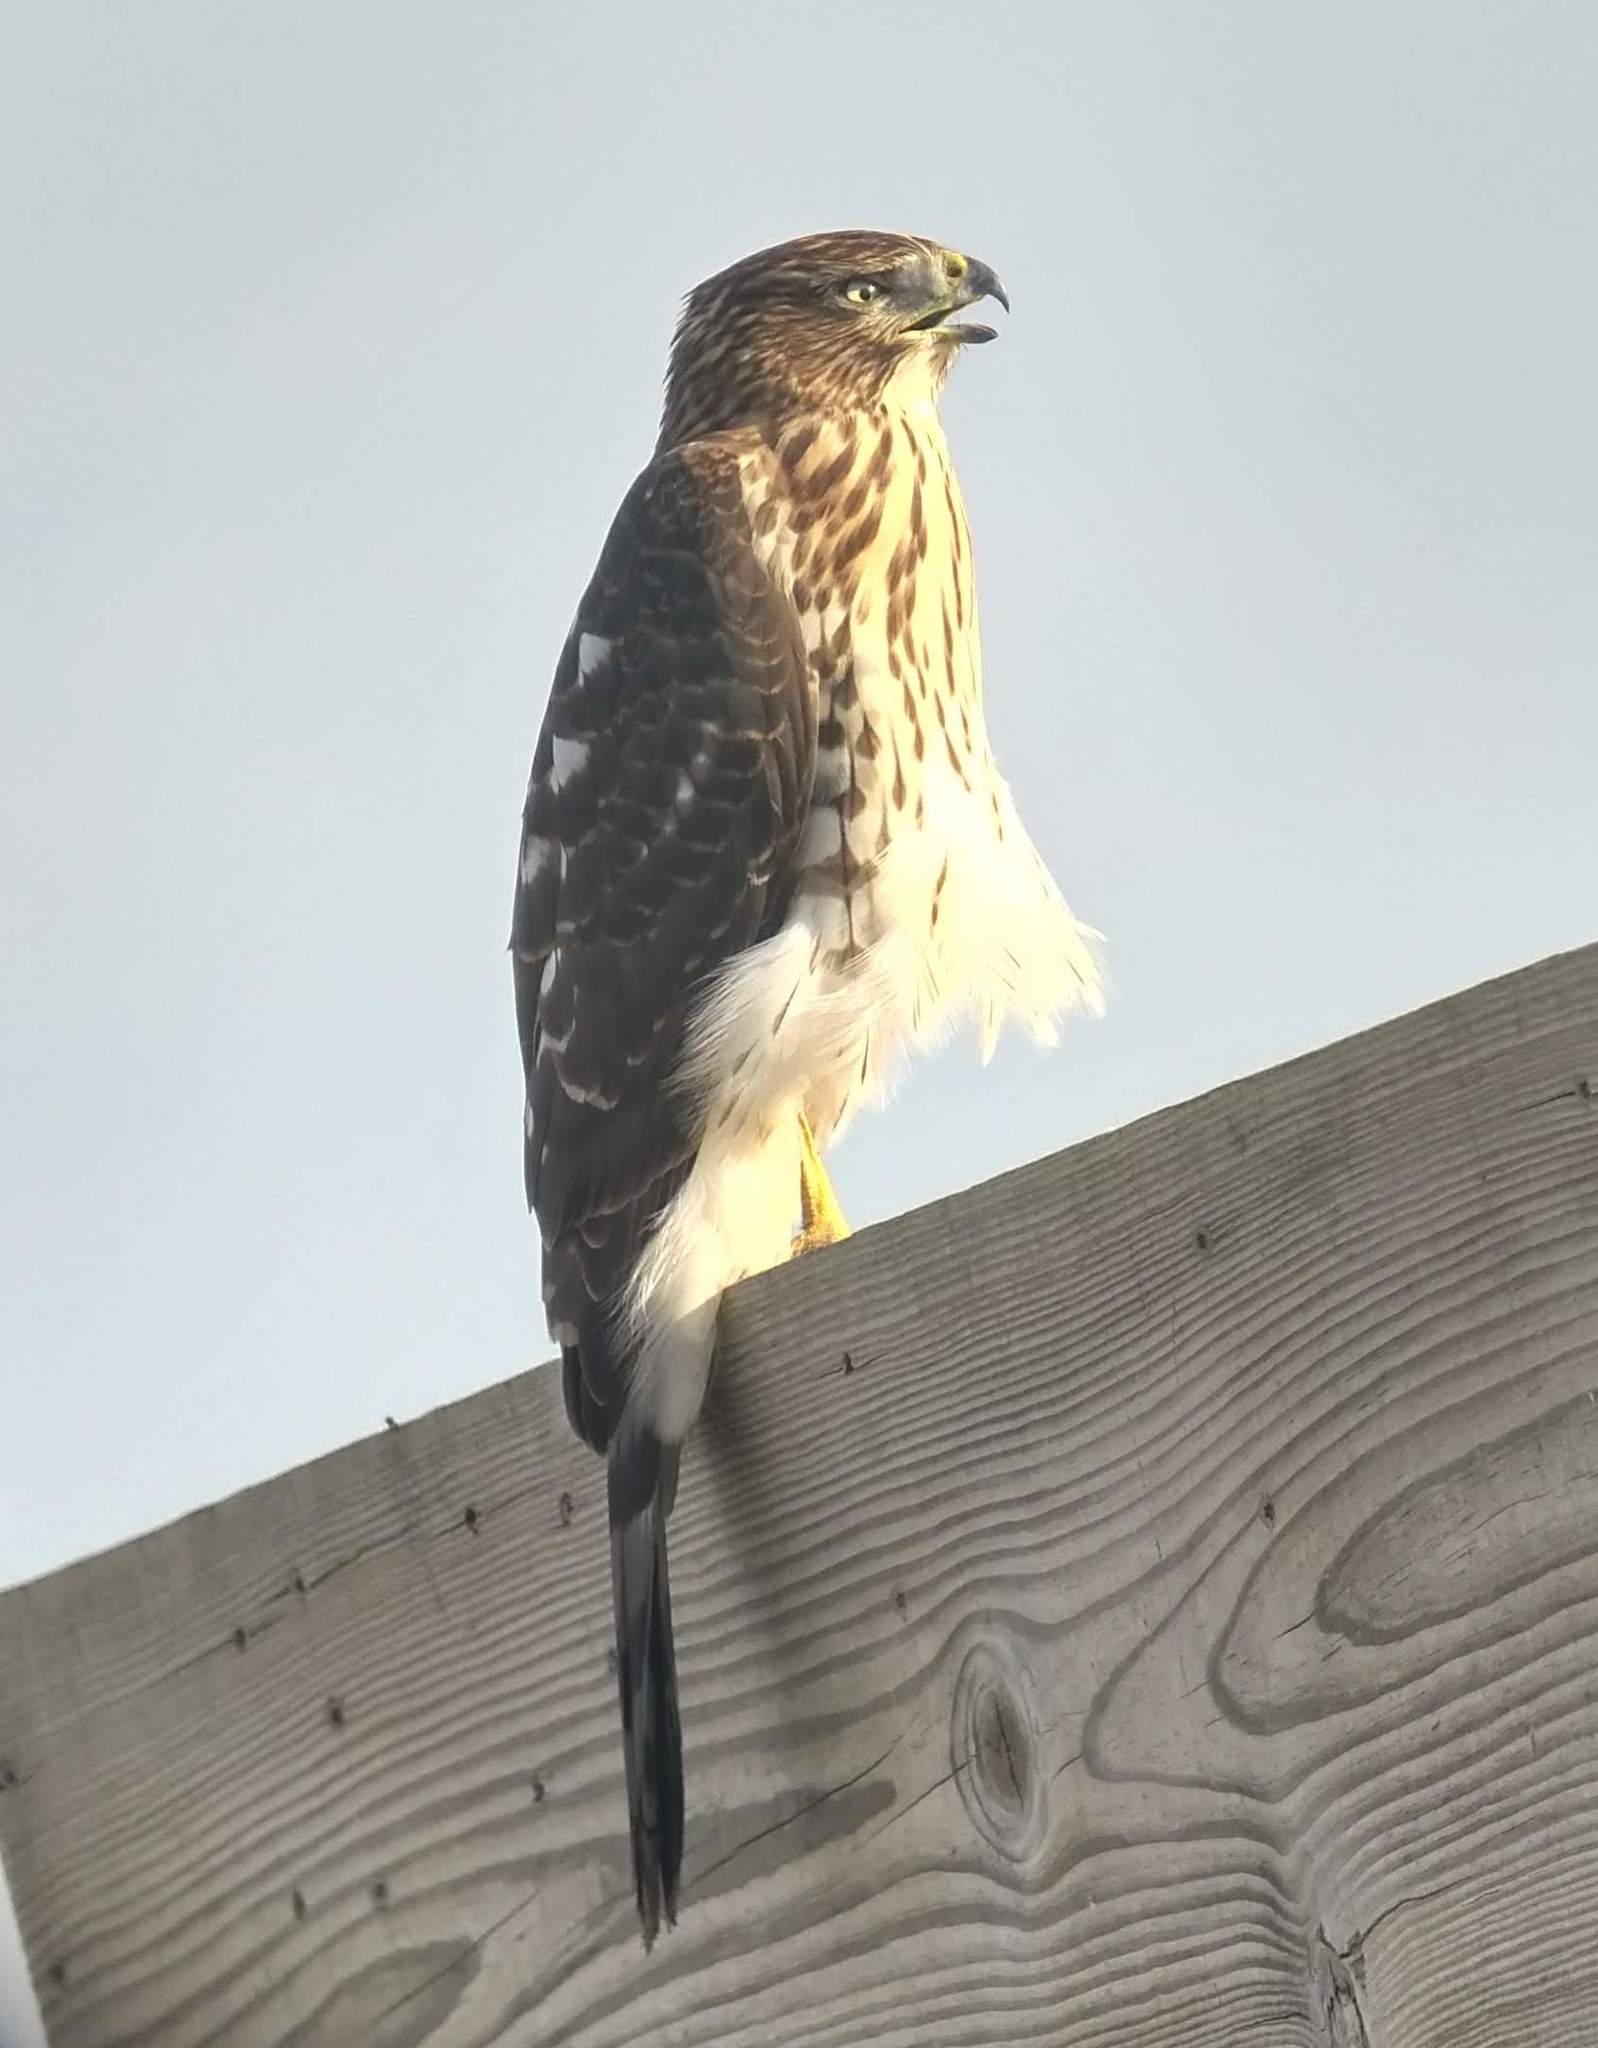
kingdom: Animalia
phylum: Chordata
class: Aves
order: Accipitriformes
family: Accipitridae
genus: Accipiter
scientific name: Accipiter cooperii
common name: Cooper's hawk
